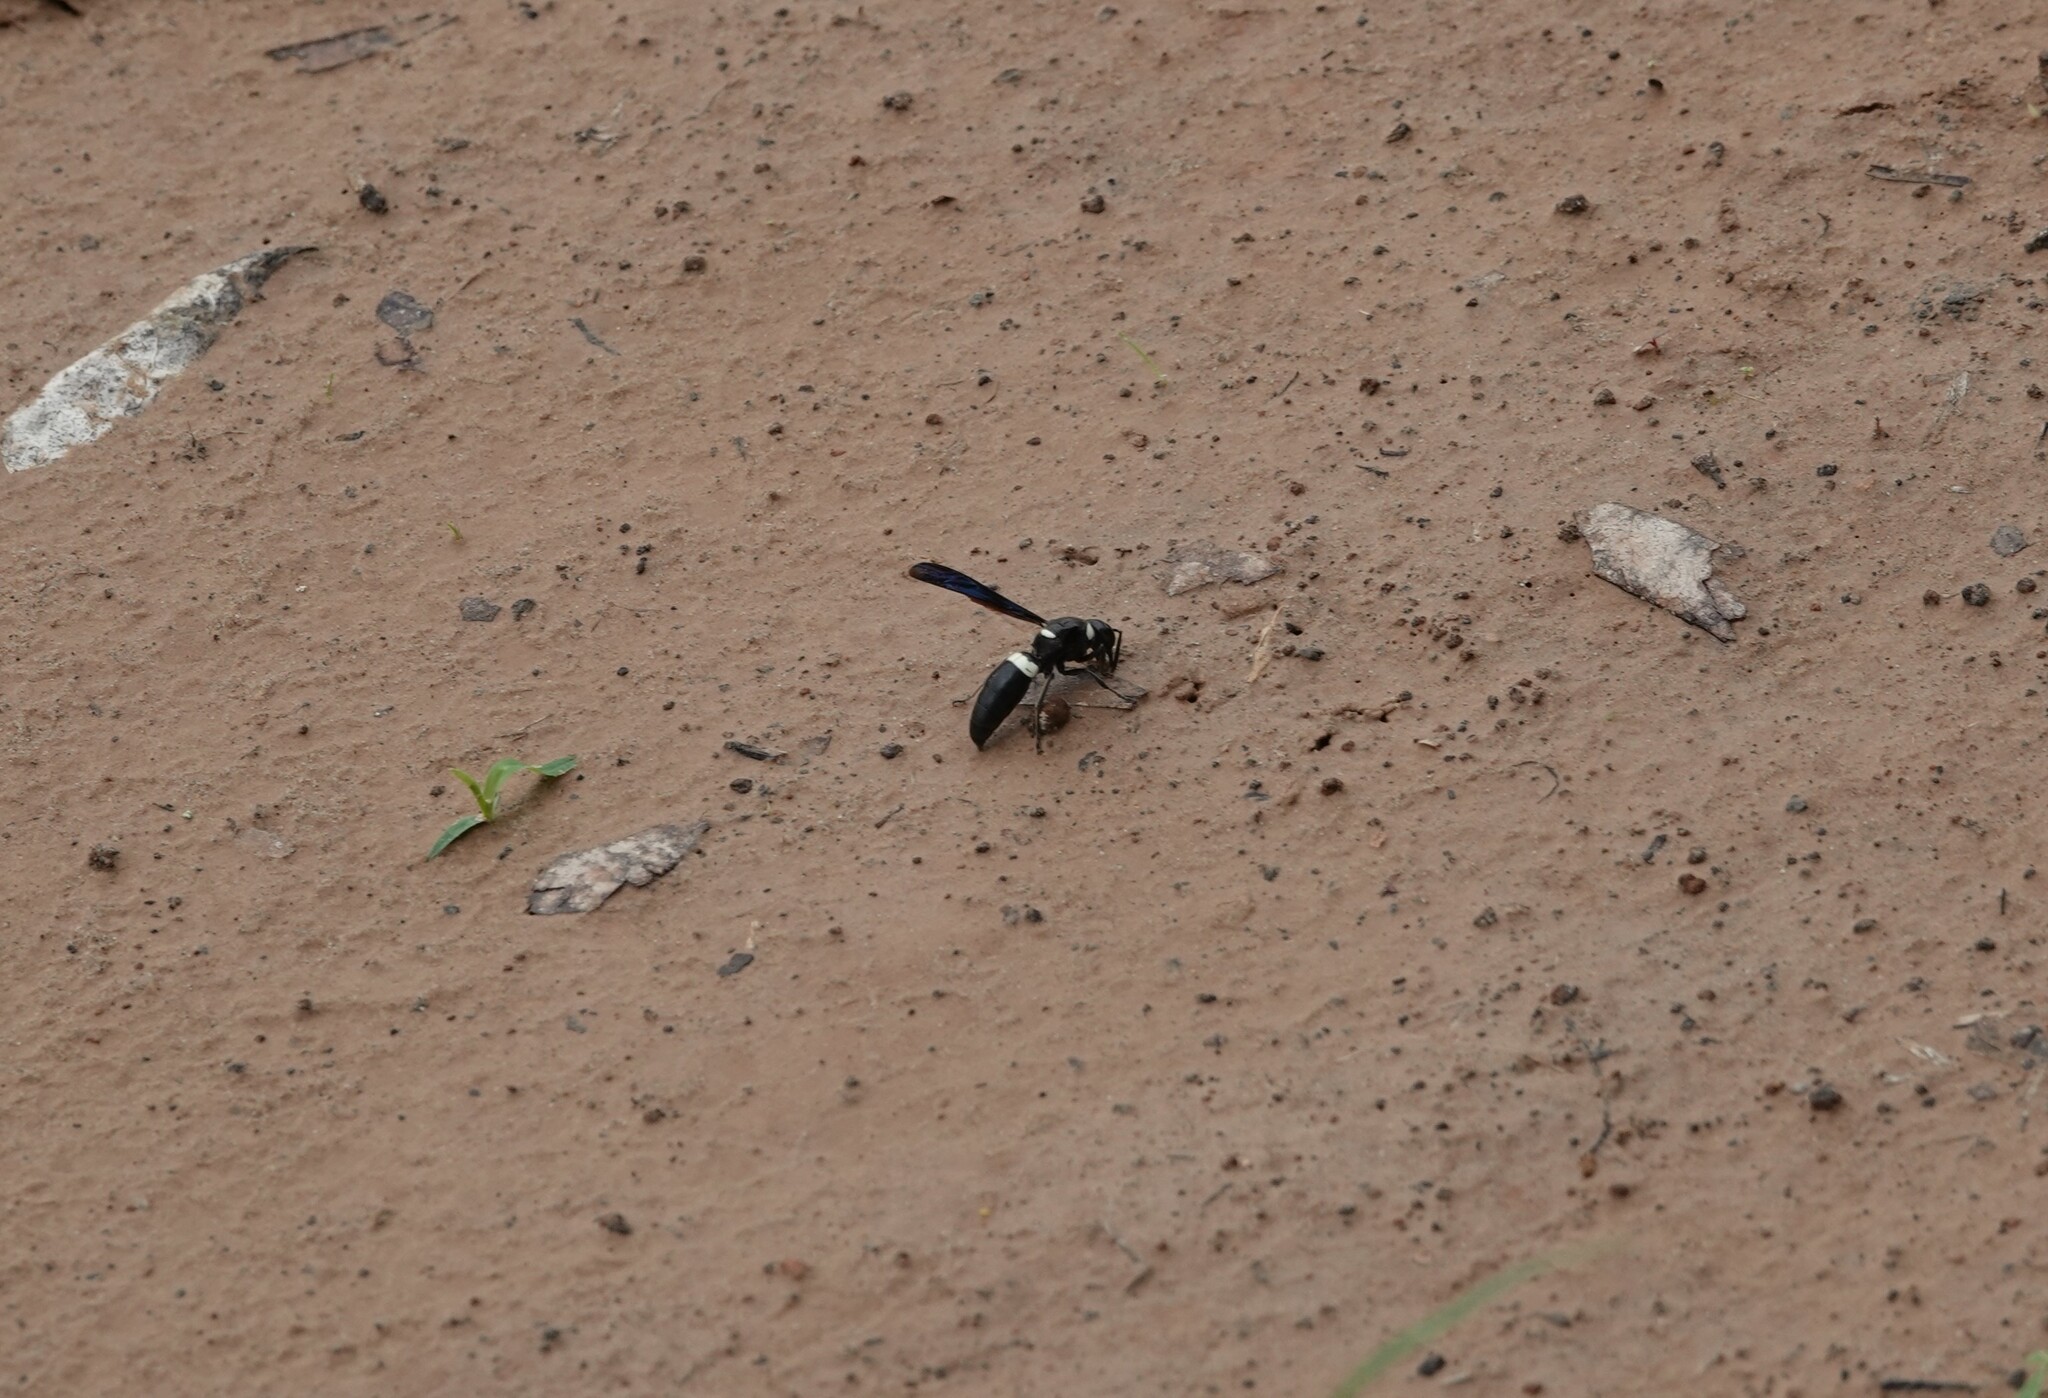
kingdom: Animalia
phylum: Arthropoda
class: Insecta
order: Hymenoptera
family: Eumenidae
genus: Monobia
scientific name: Monobia quadridens
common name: Four-toothed mason wasp
